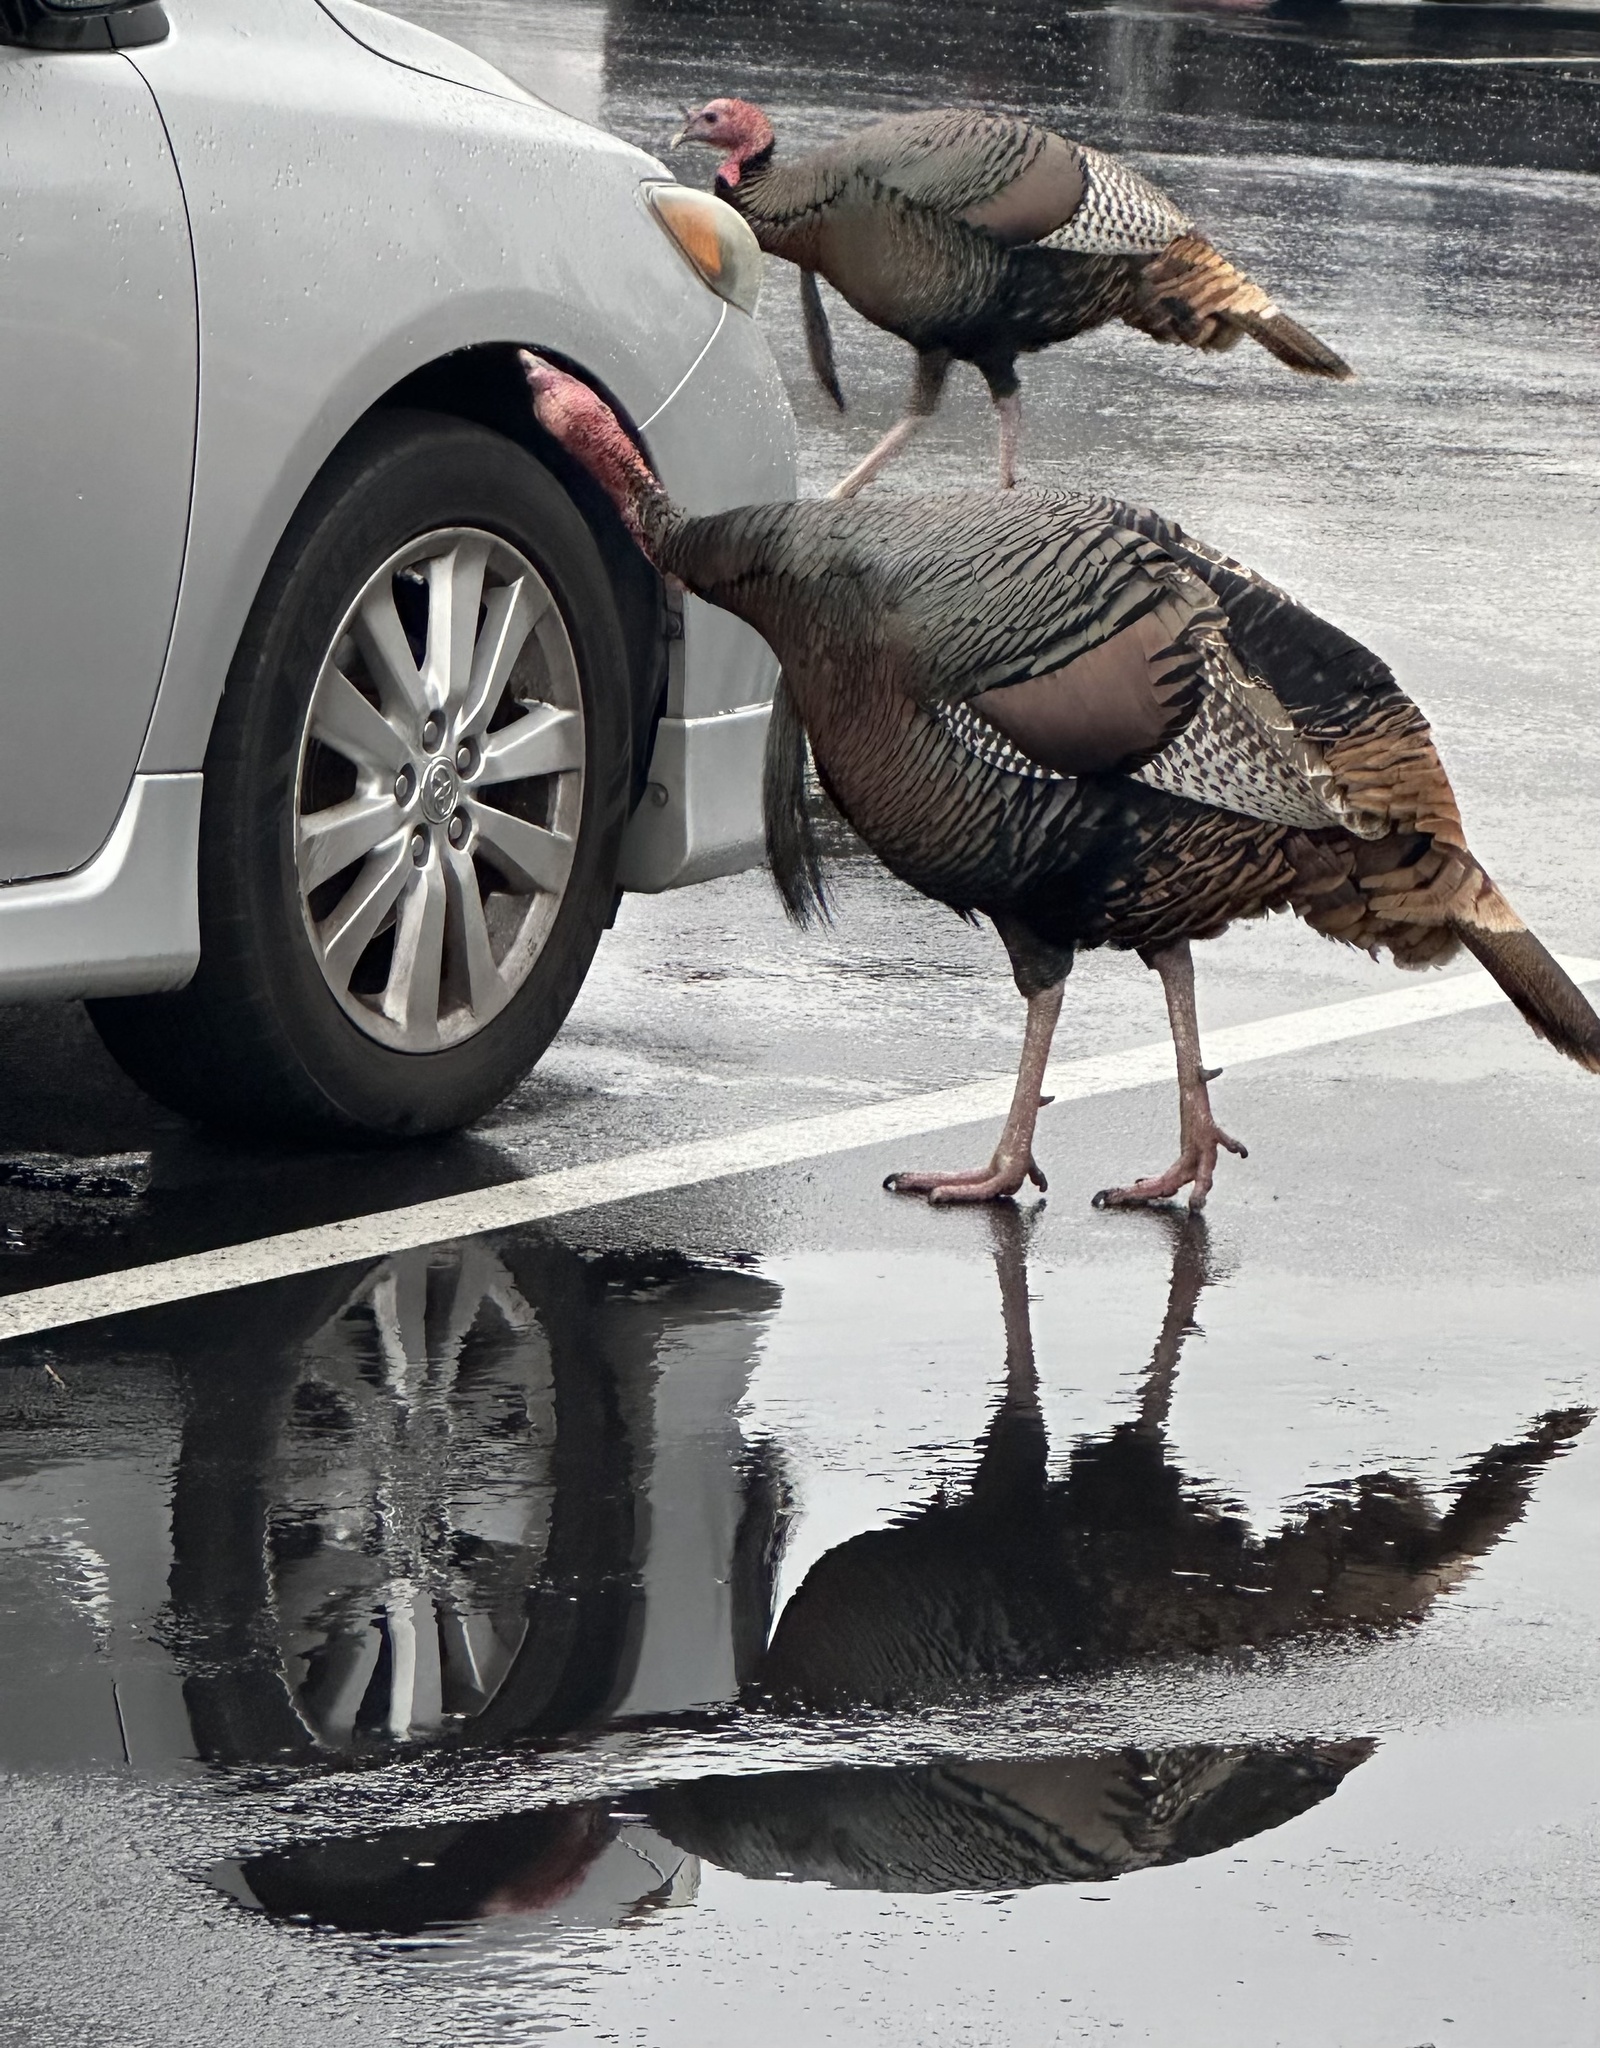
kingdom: Animalia
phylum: Chordata
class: Aves
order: Galliformes
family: Phasianidae
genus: Meleagris
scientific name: Meleagris gallopavo
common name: Wild turkey
